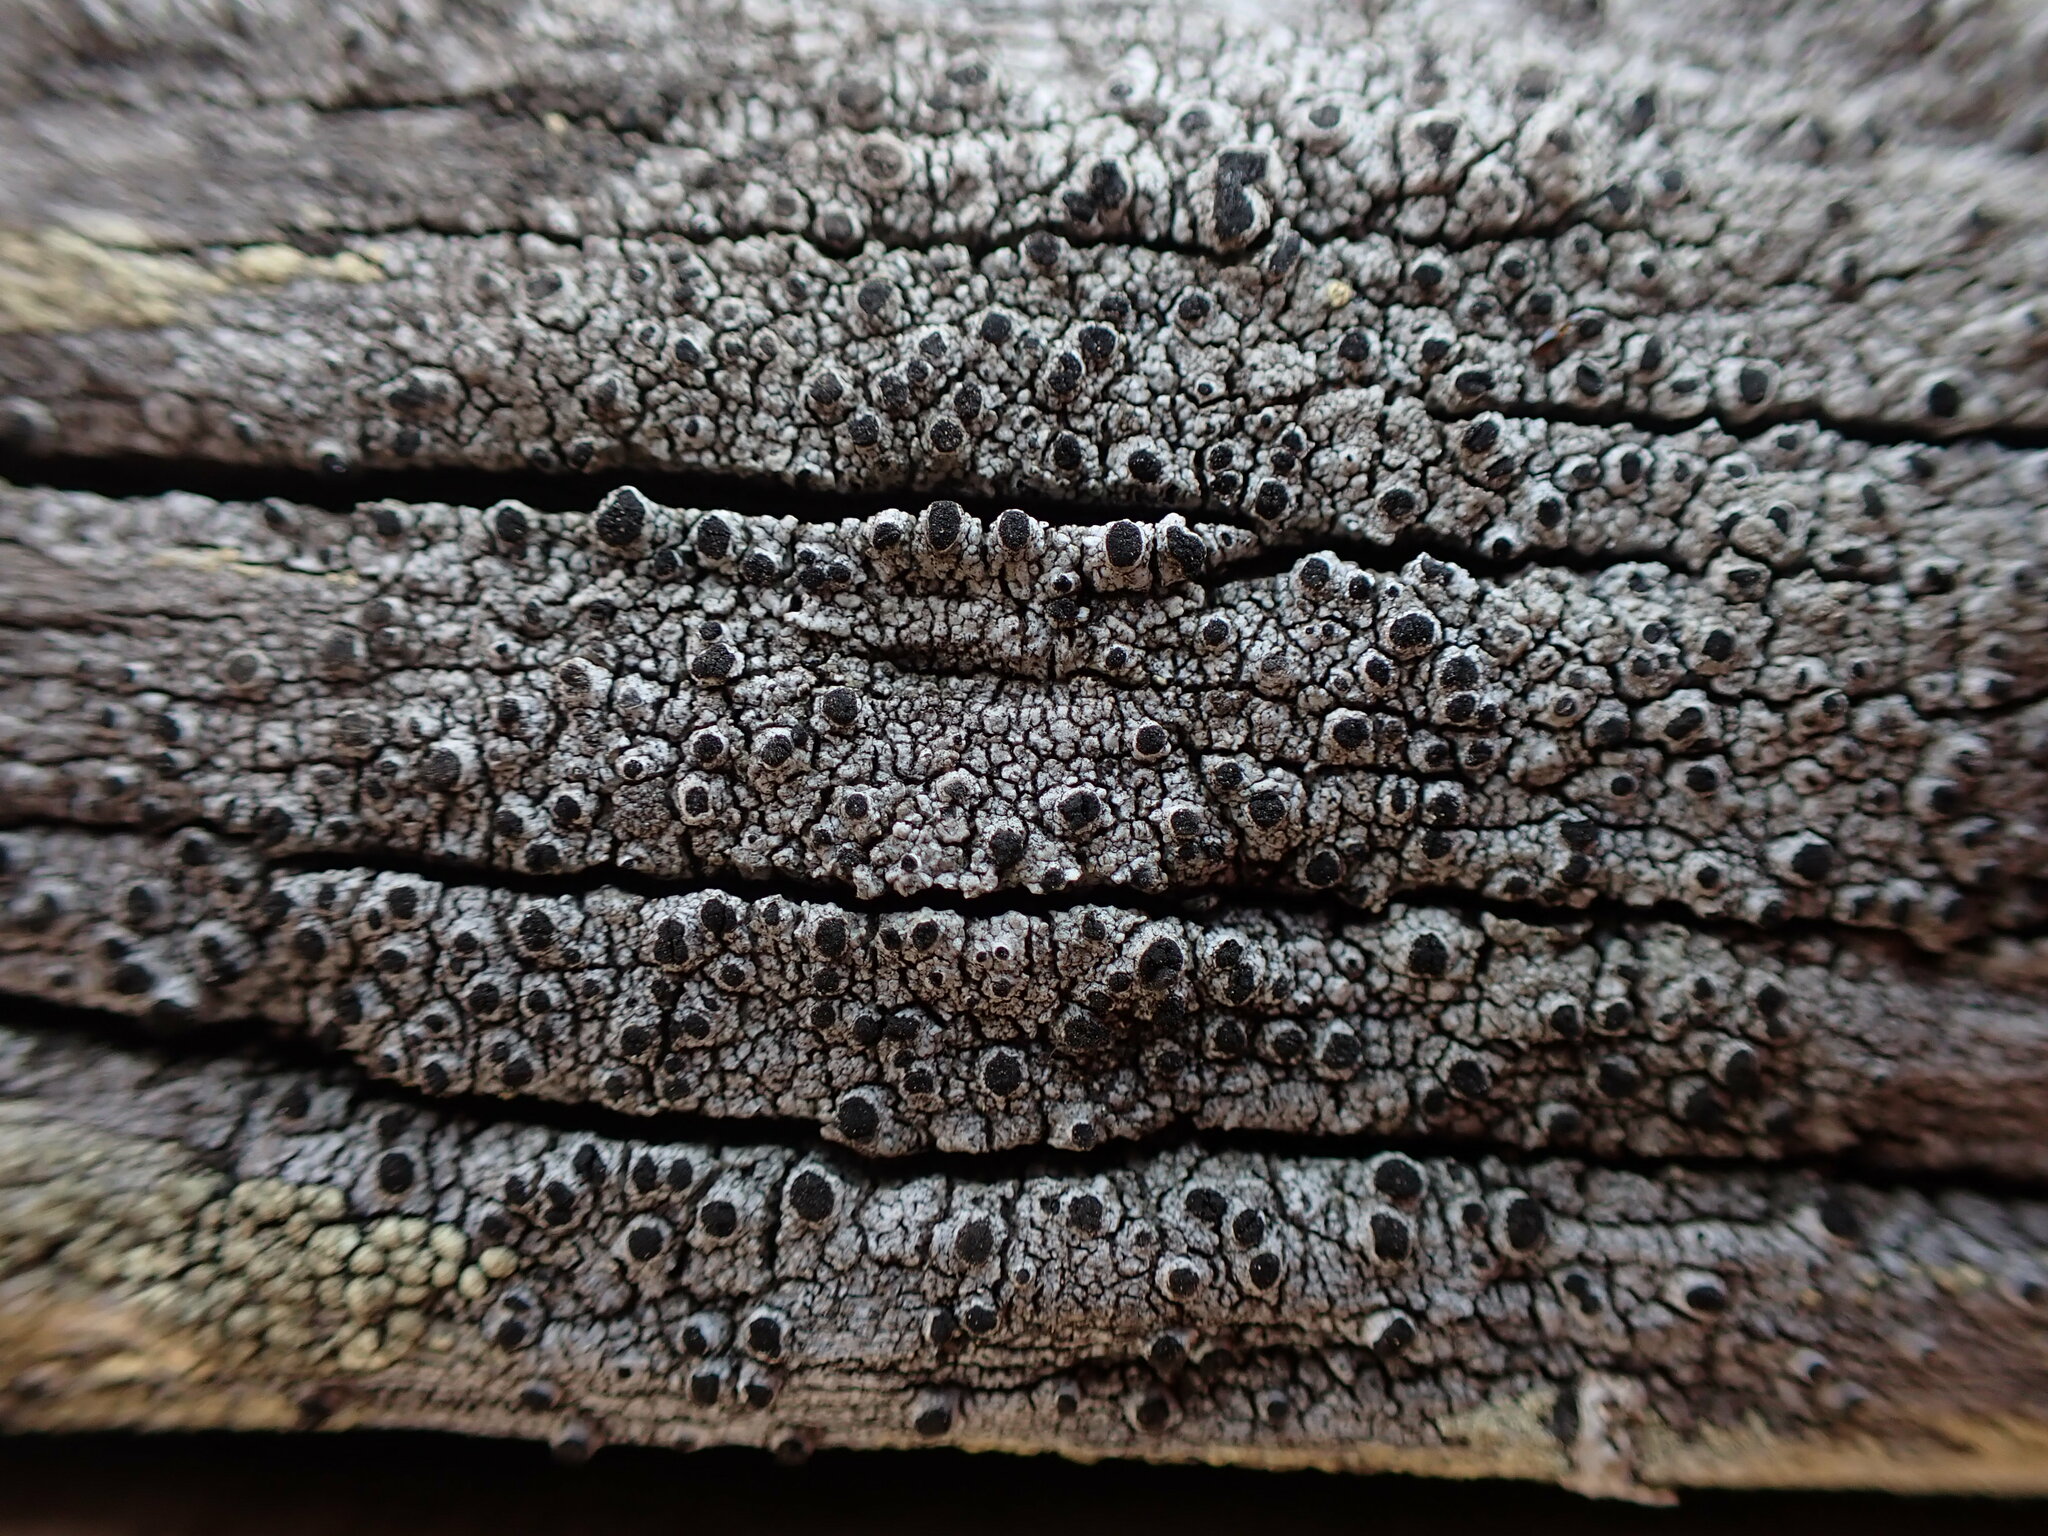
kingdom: Fungi
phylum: Ascomycota
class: Lecanoromycetes
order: Caliciales
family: Caliciaceae
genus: Pseudothelomma
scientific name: Pseudothelomma occidentale
